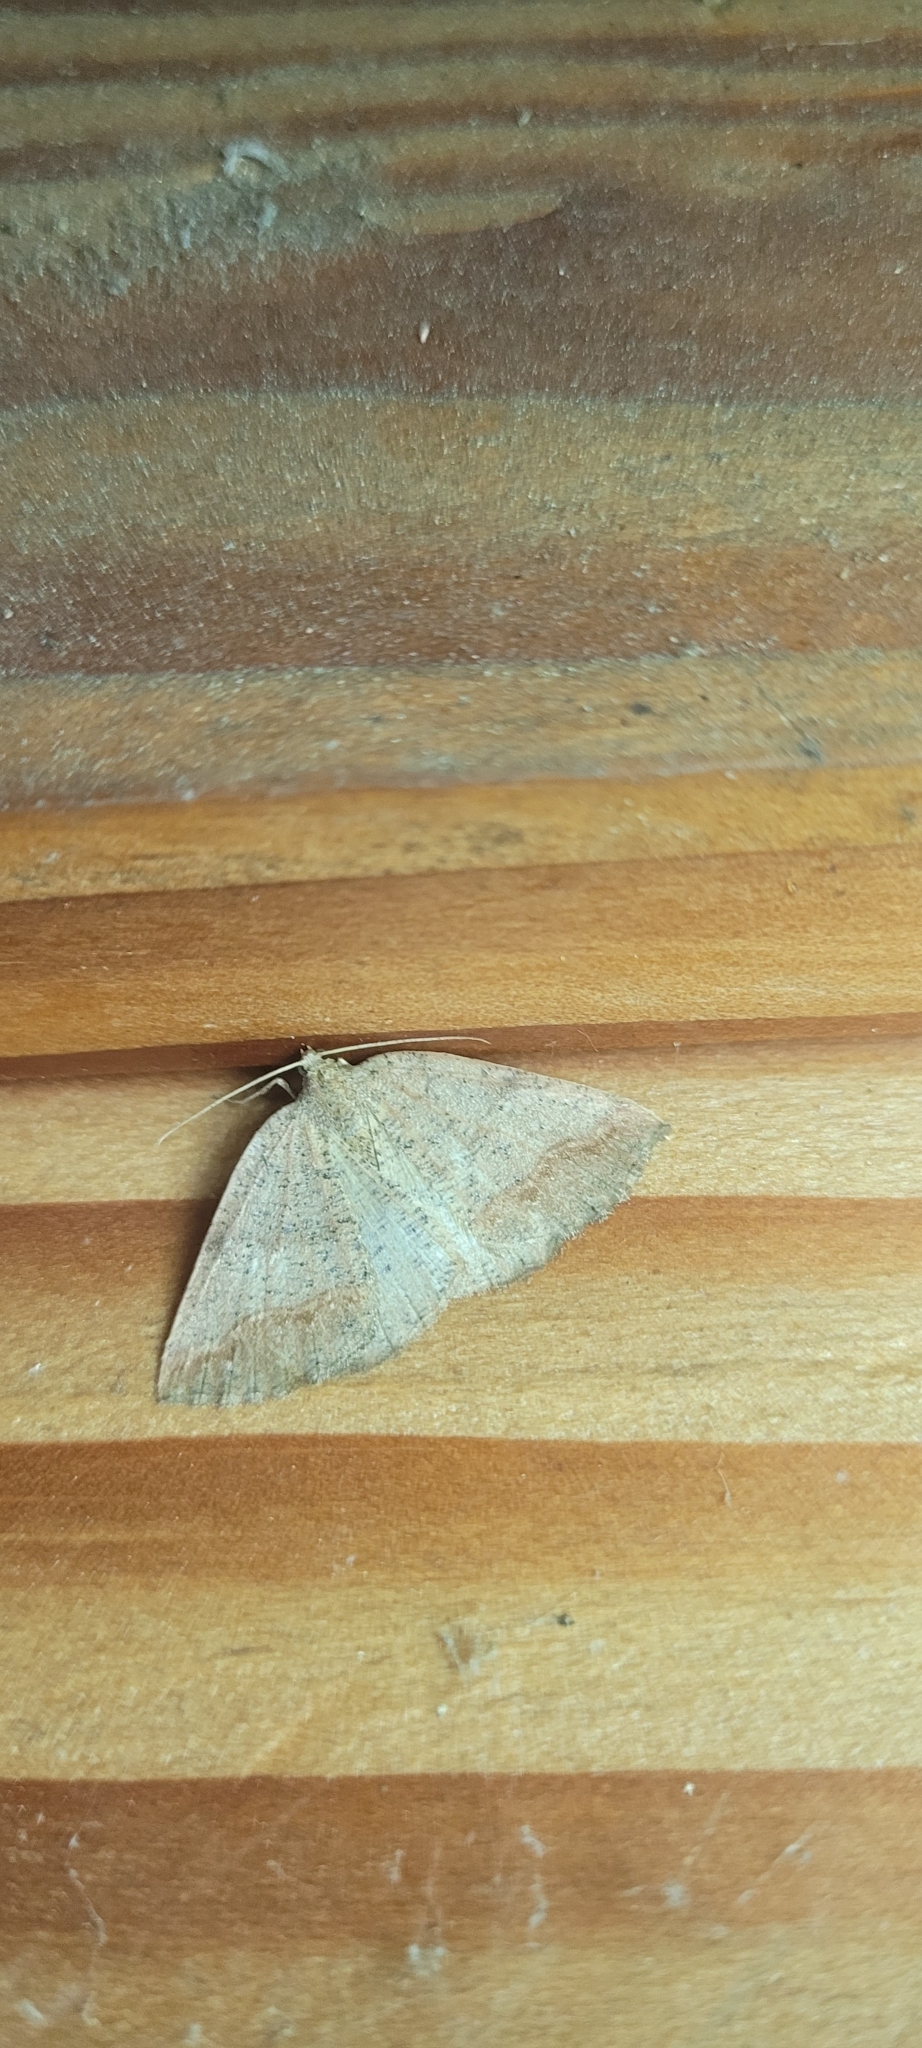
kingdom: Animalia
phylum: Arthropoda
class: Insecta
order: Lepidoptera
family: Geometridae
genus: Thysanopyga
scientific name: Thysanopyga
